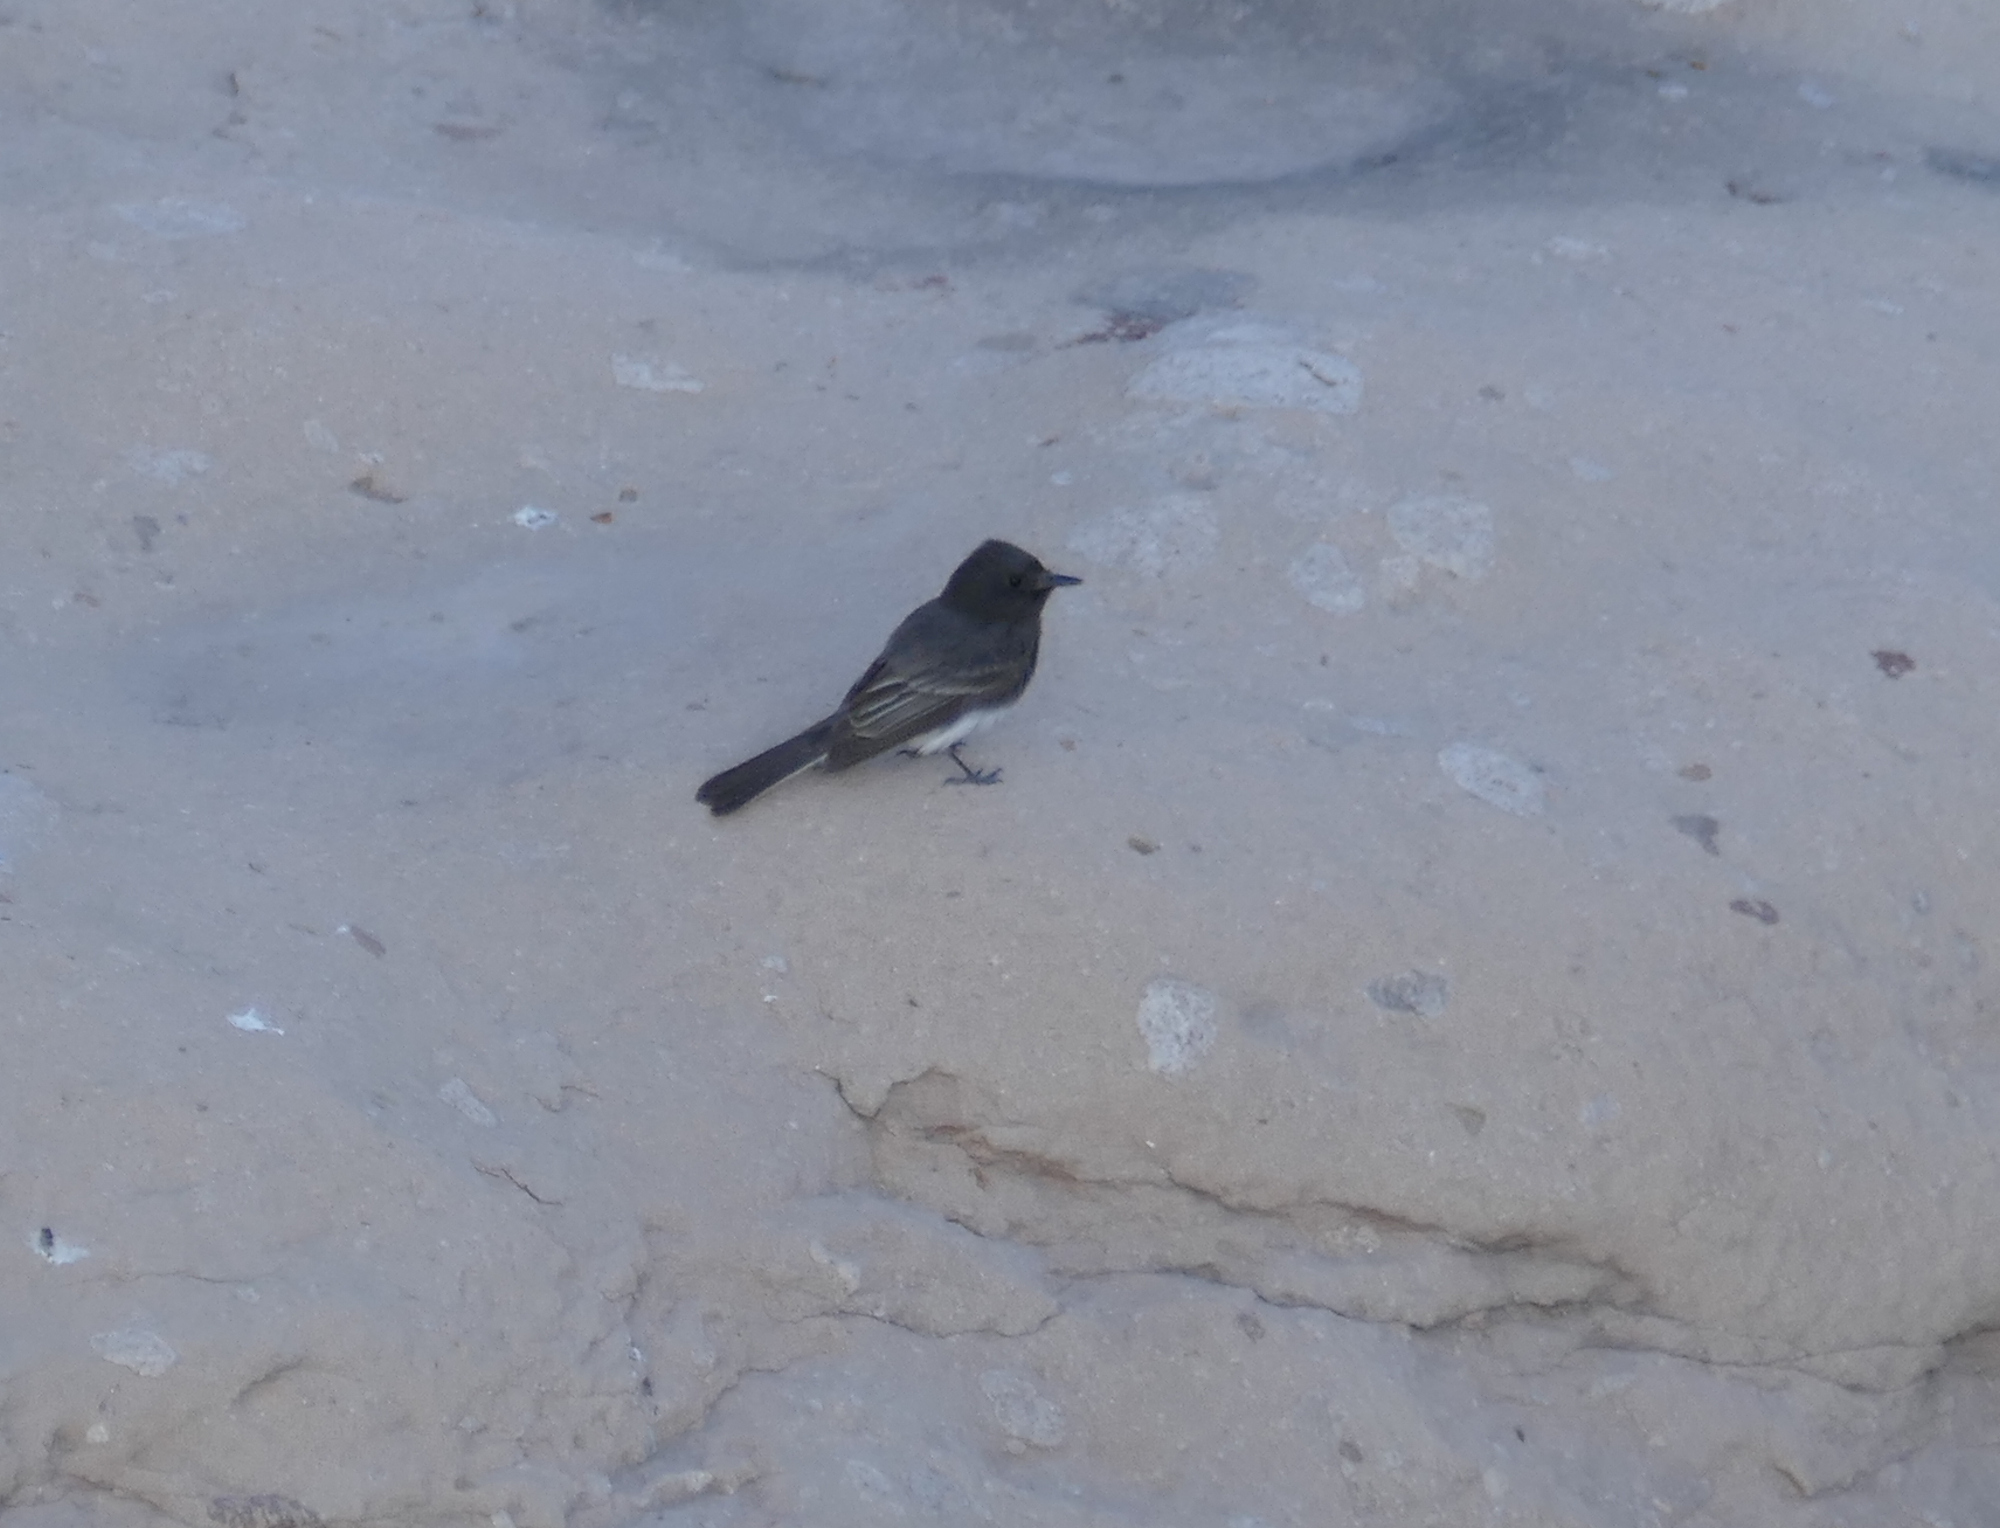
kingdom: Animalia
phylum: Chordata
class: Aves
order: Passeriformes
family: Tyrannidae
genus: Sayornis
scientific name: Sayornis nigricans
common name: Black phoebe
